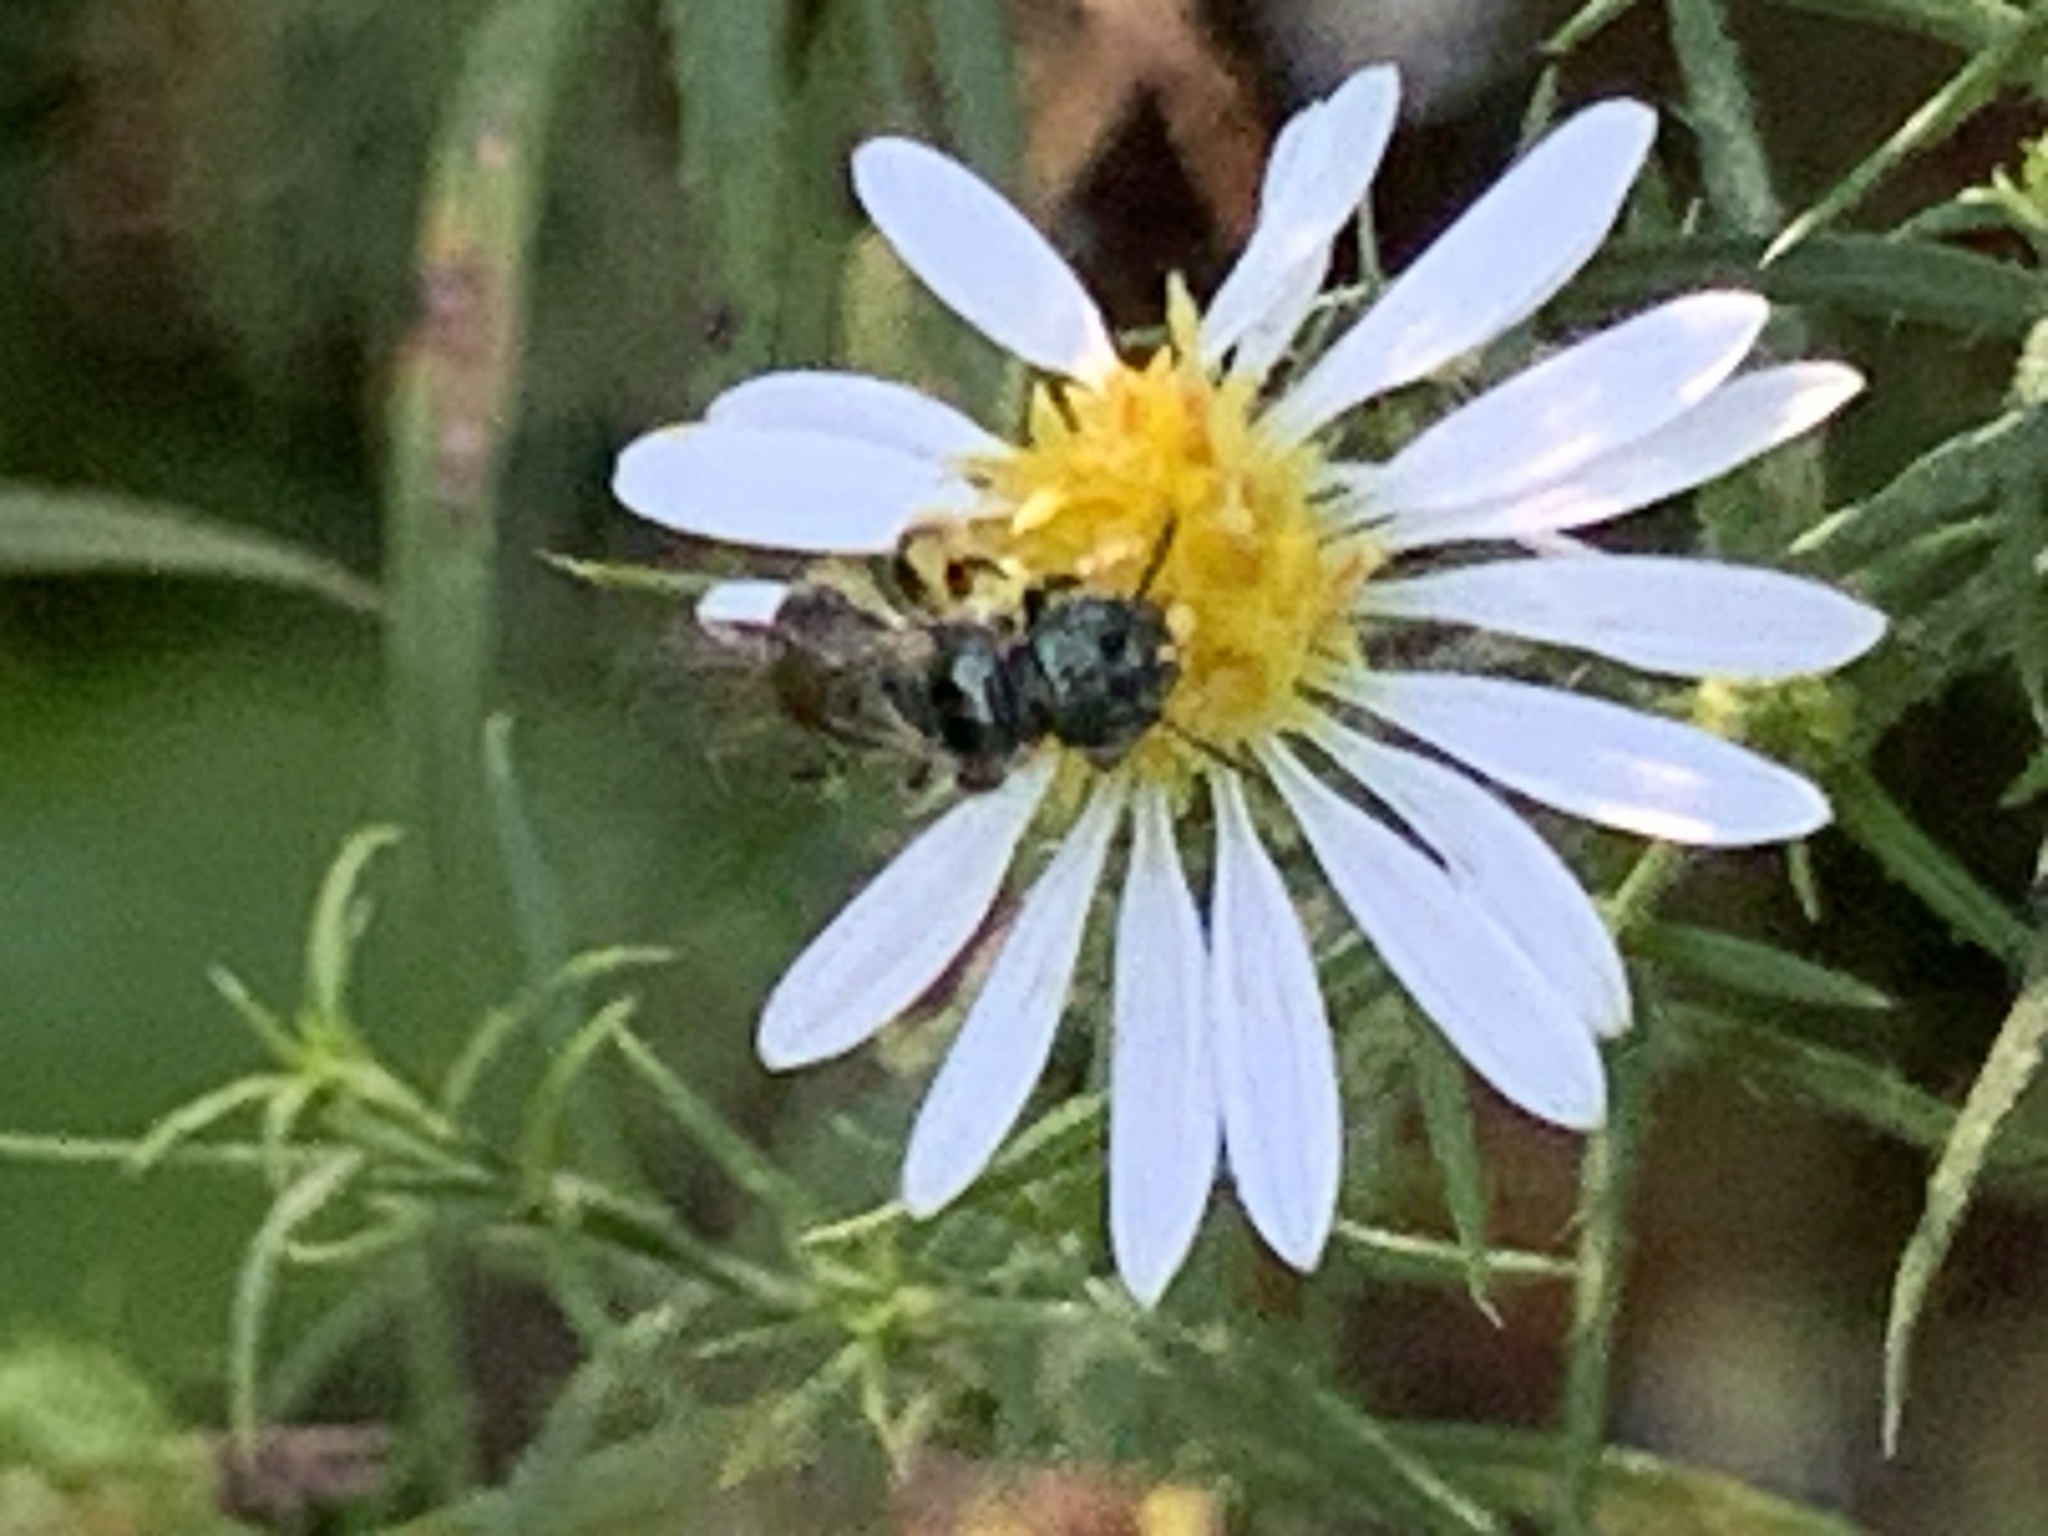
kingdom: Animalia
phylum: Arthropoda
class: Insecta
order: Hymenoptera
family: Apidae
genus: Zadontomerus
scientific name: Zadontomerus
